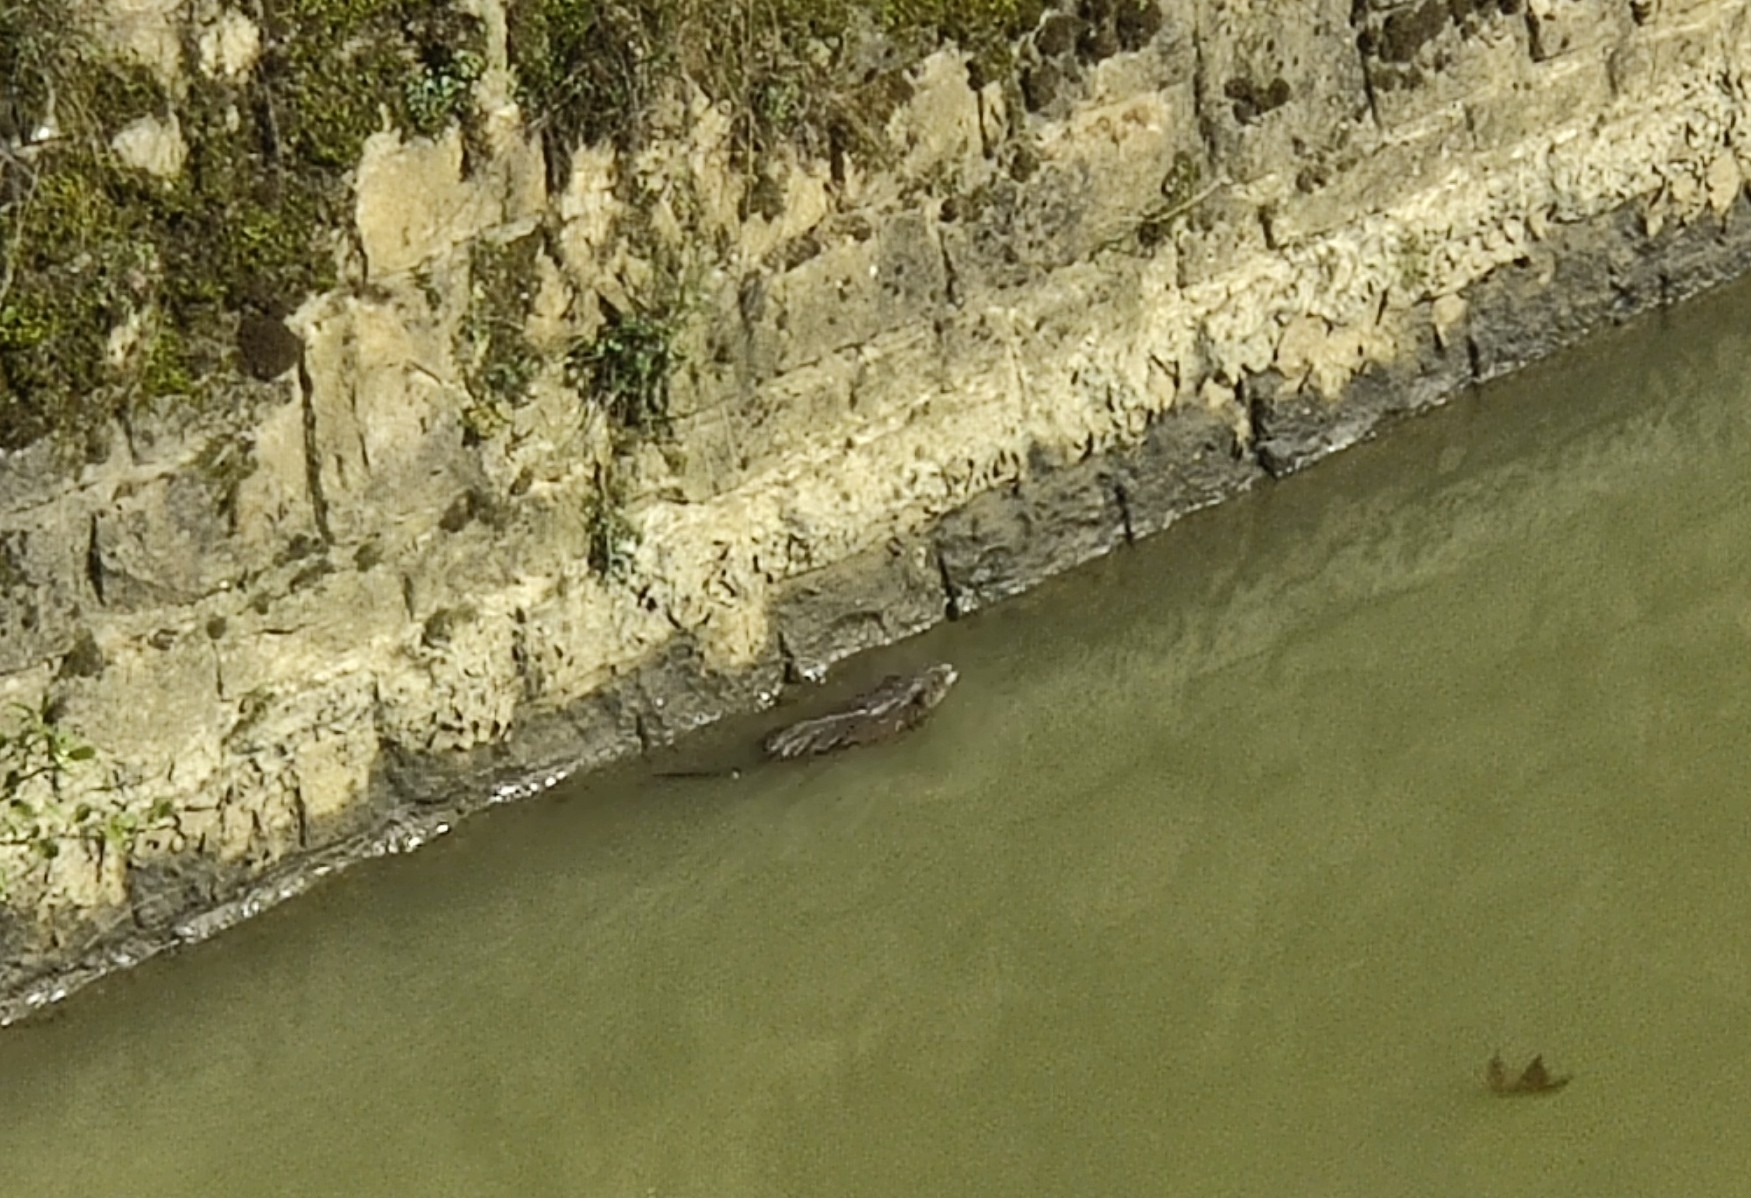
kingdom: Animalia
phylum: Chordata
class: Mammalia
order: Rodentia
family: Cricetidae
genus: Ondatra
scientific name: Ondatra zibethicus
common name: Muskrat
